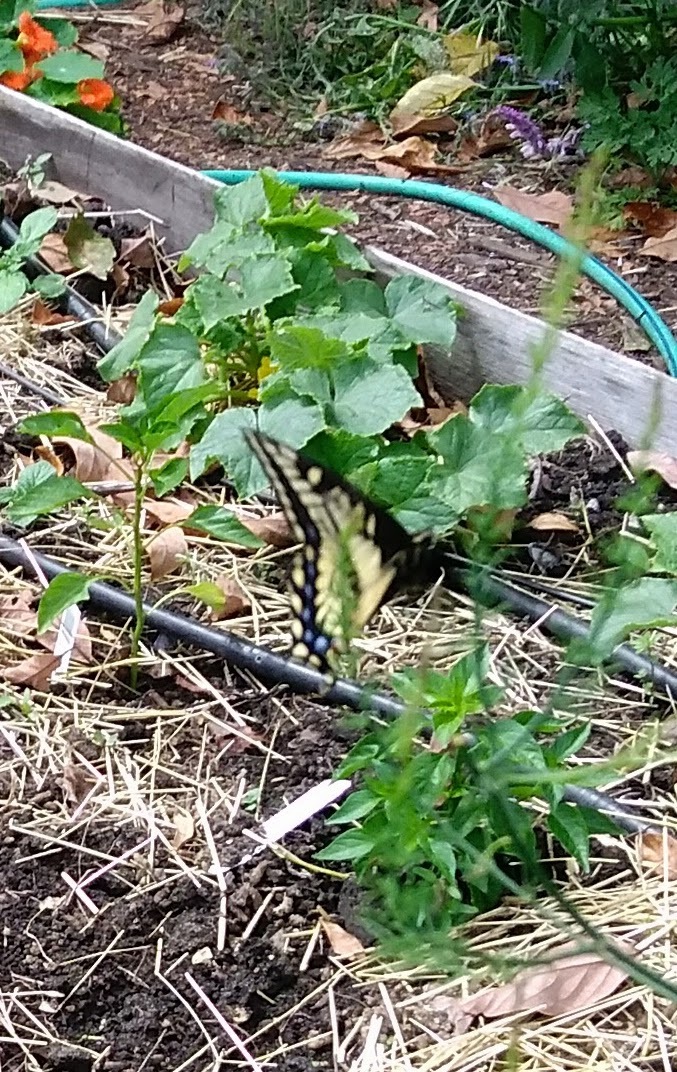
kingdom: Animalia
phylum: Arthropoda
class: Insecta
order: Lepidoptera
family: Papilionidae
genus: Papilio
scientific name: Papilio zelicaon
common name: Anise swallowtail
